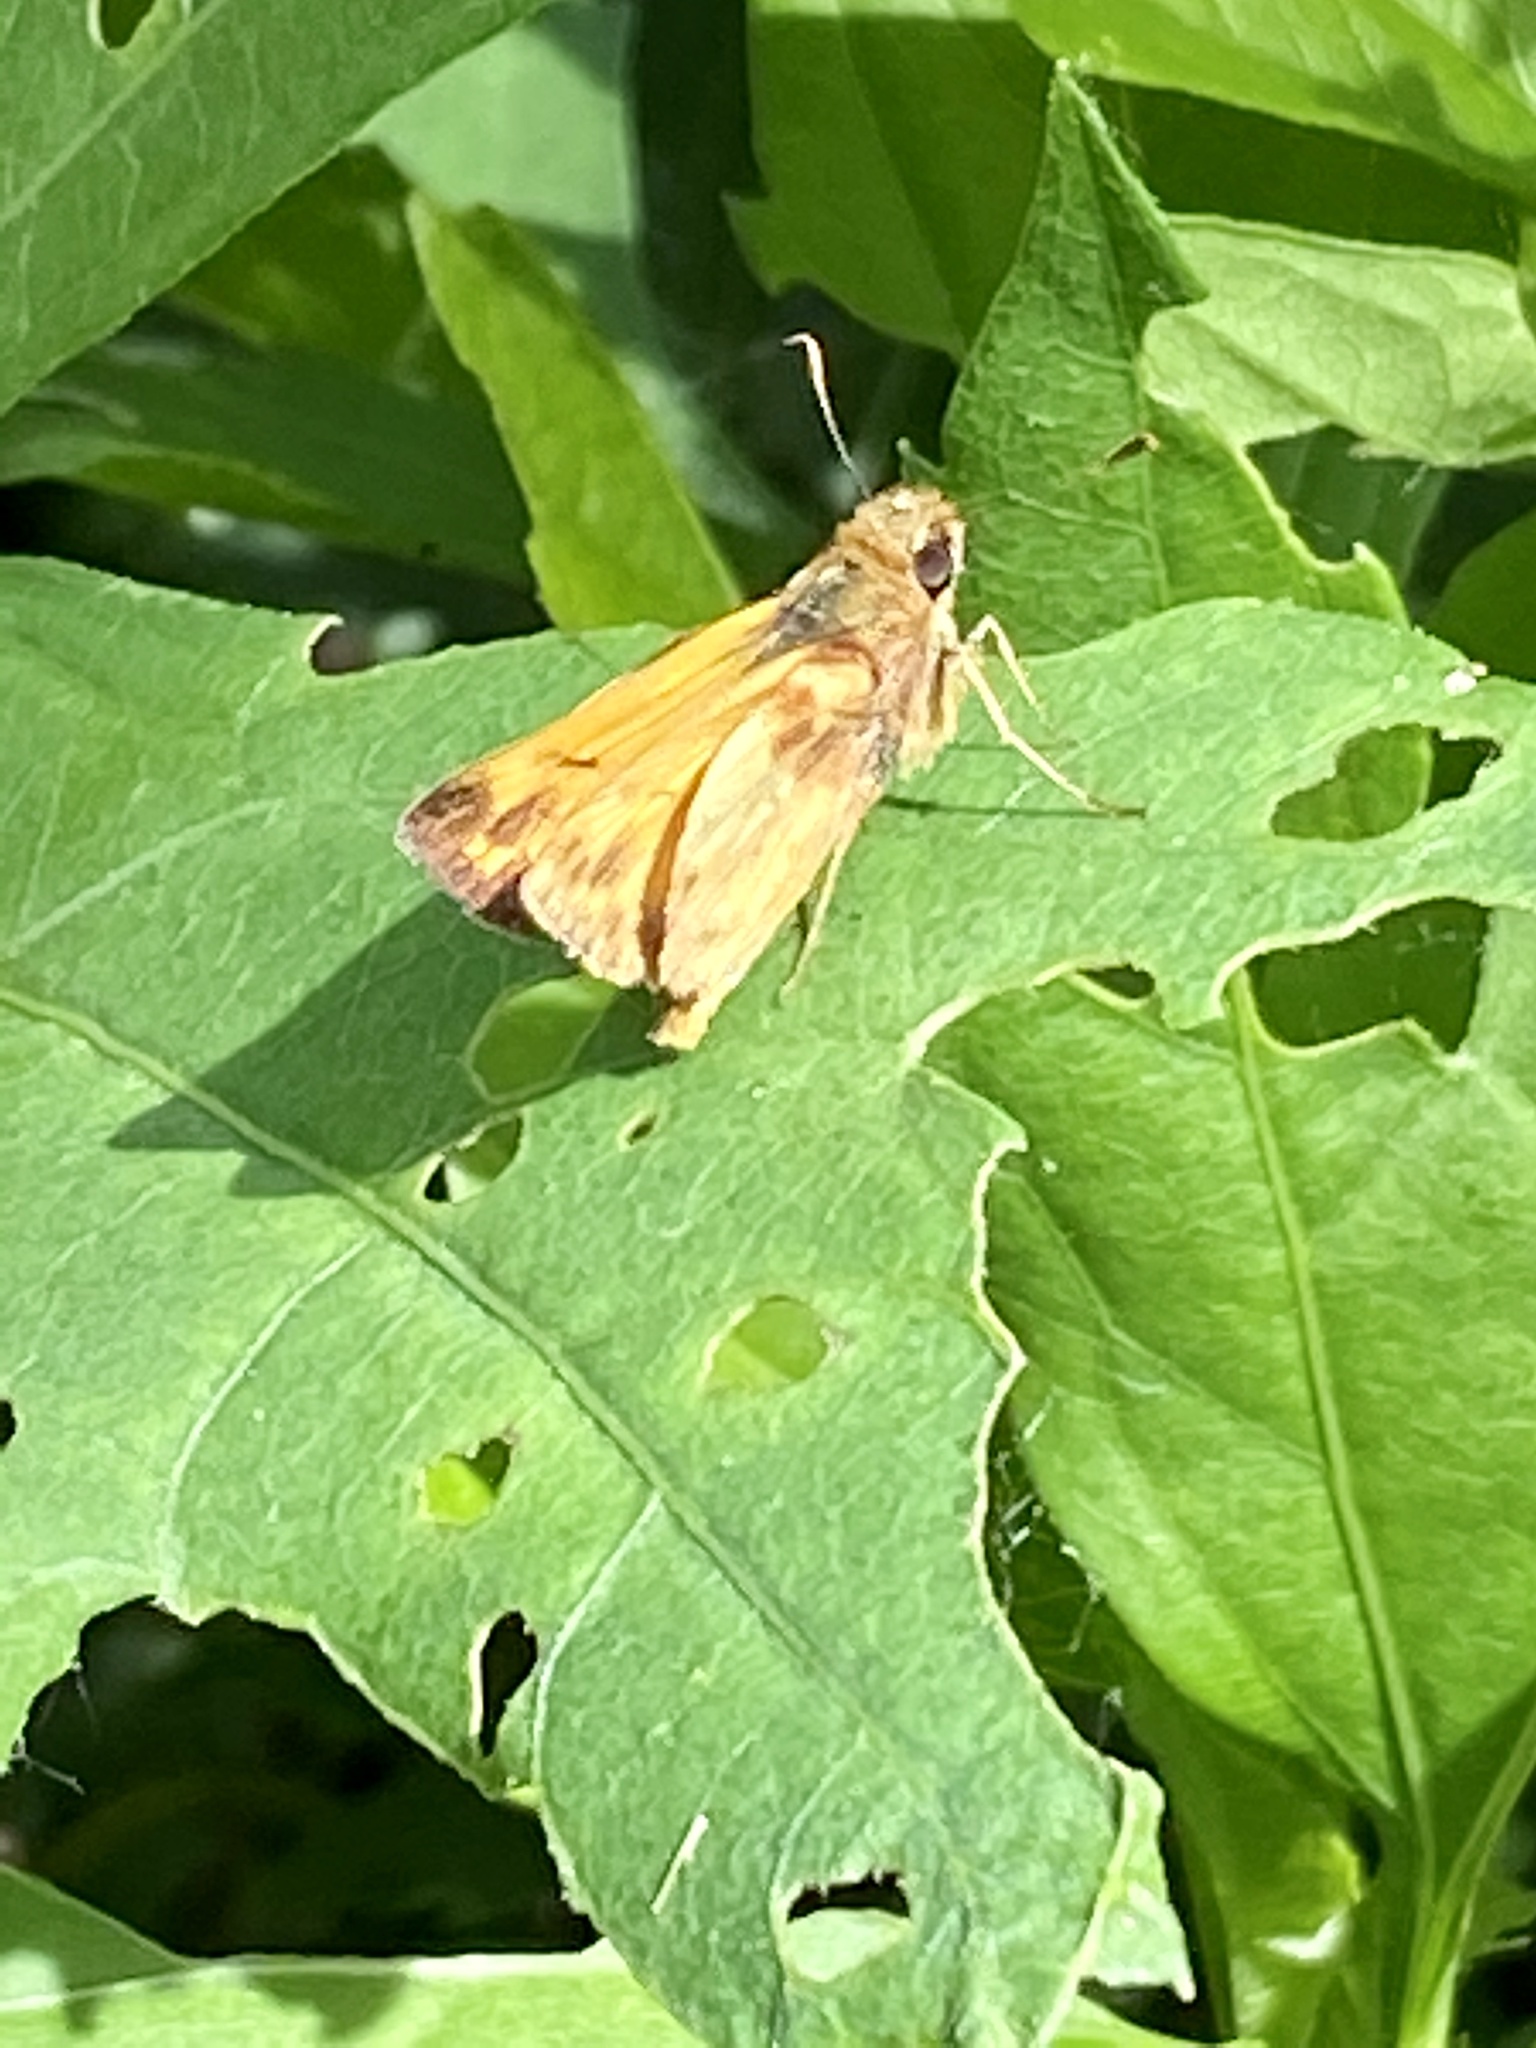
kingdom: Animalia
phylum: Arthropoda
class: Insecta
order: Lepidoptera
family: Hesperiidae
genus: Lon
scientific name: Lon zabulon
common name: Zabulon skipper
